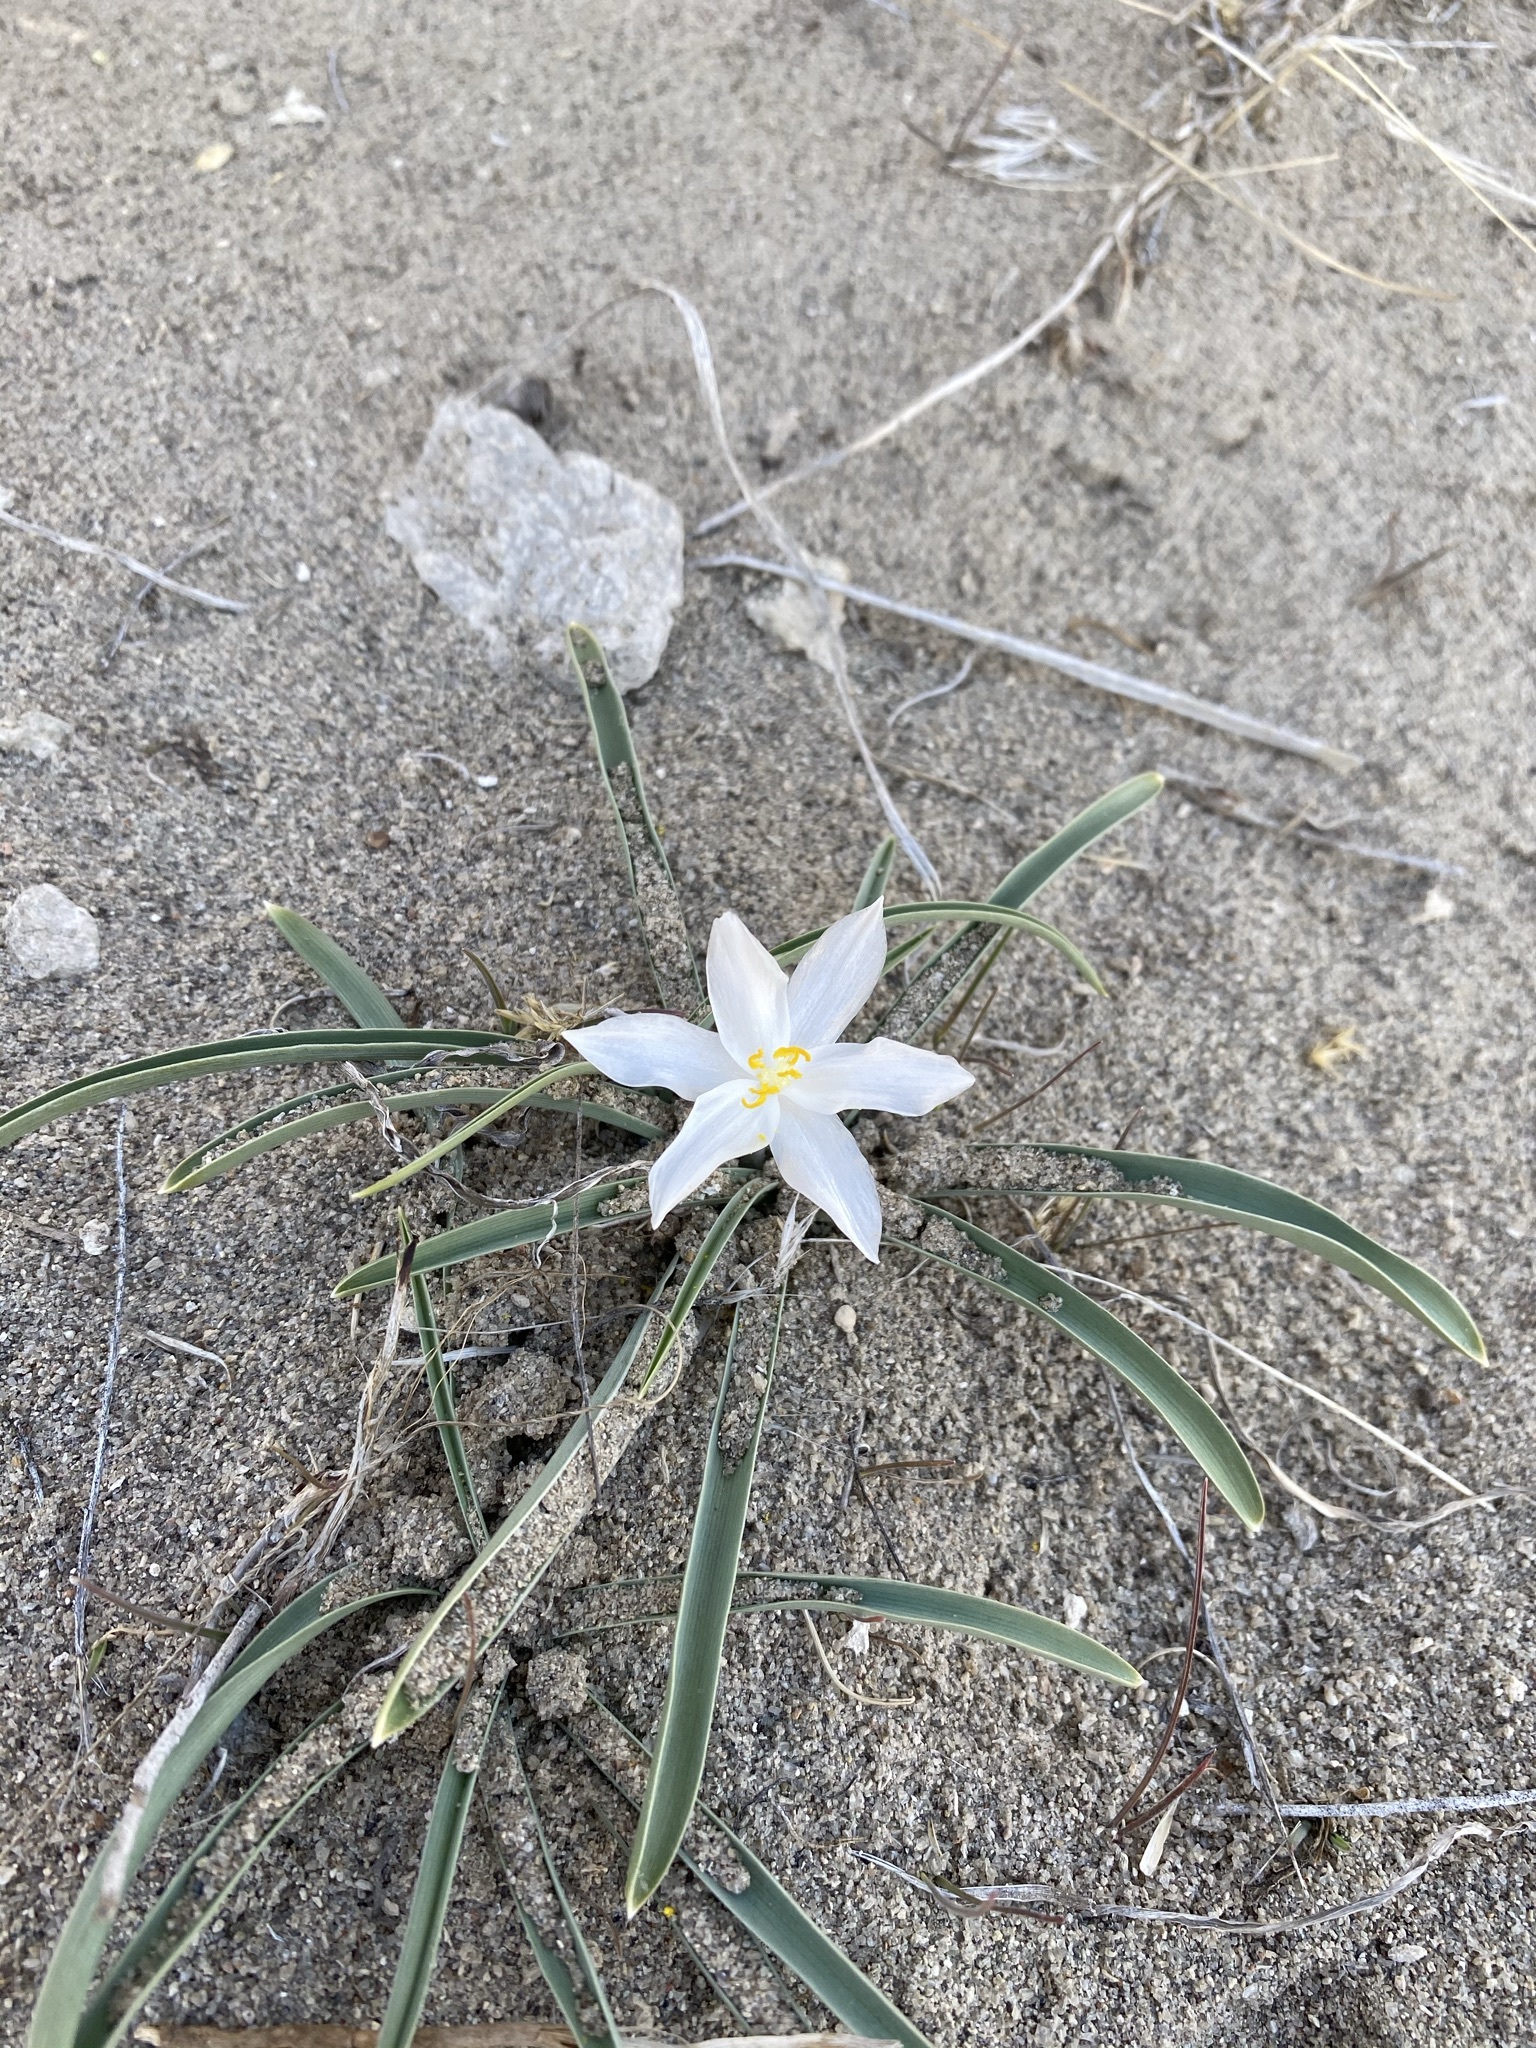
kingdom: Plantae
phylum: Tracheophyta
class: Liliopsida
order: Asparagales
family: Asparagaceae
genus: Leucocrinum
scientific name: Leucocrinum montanum
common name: Mountain-lily
